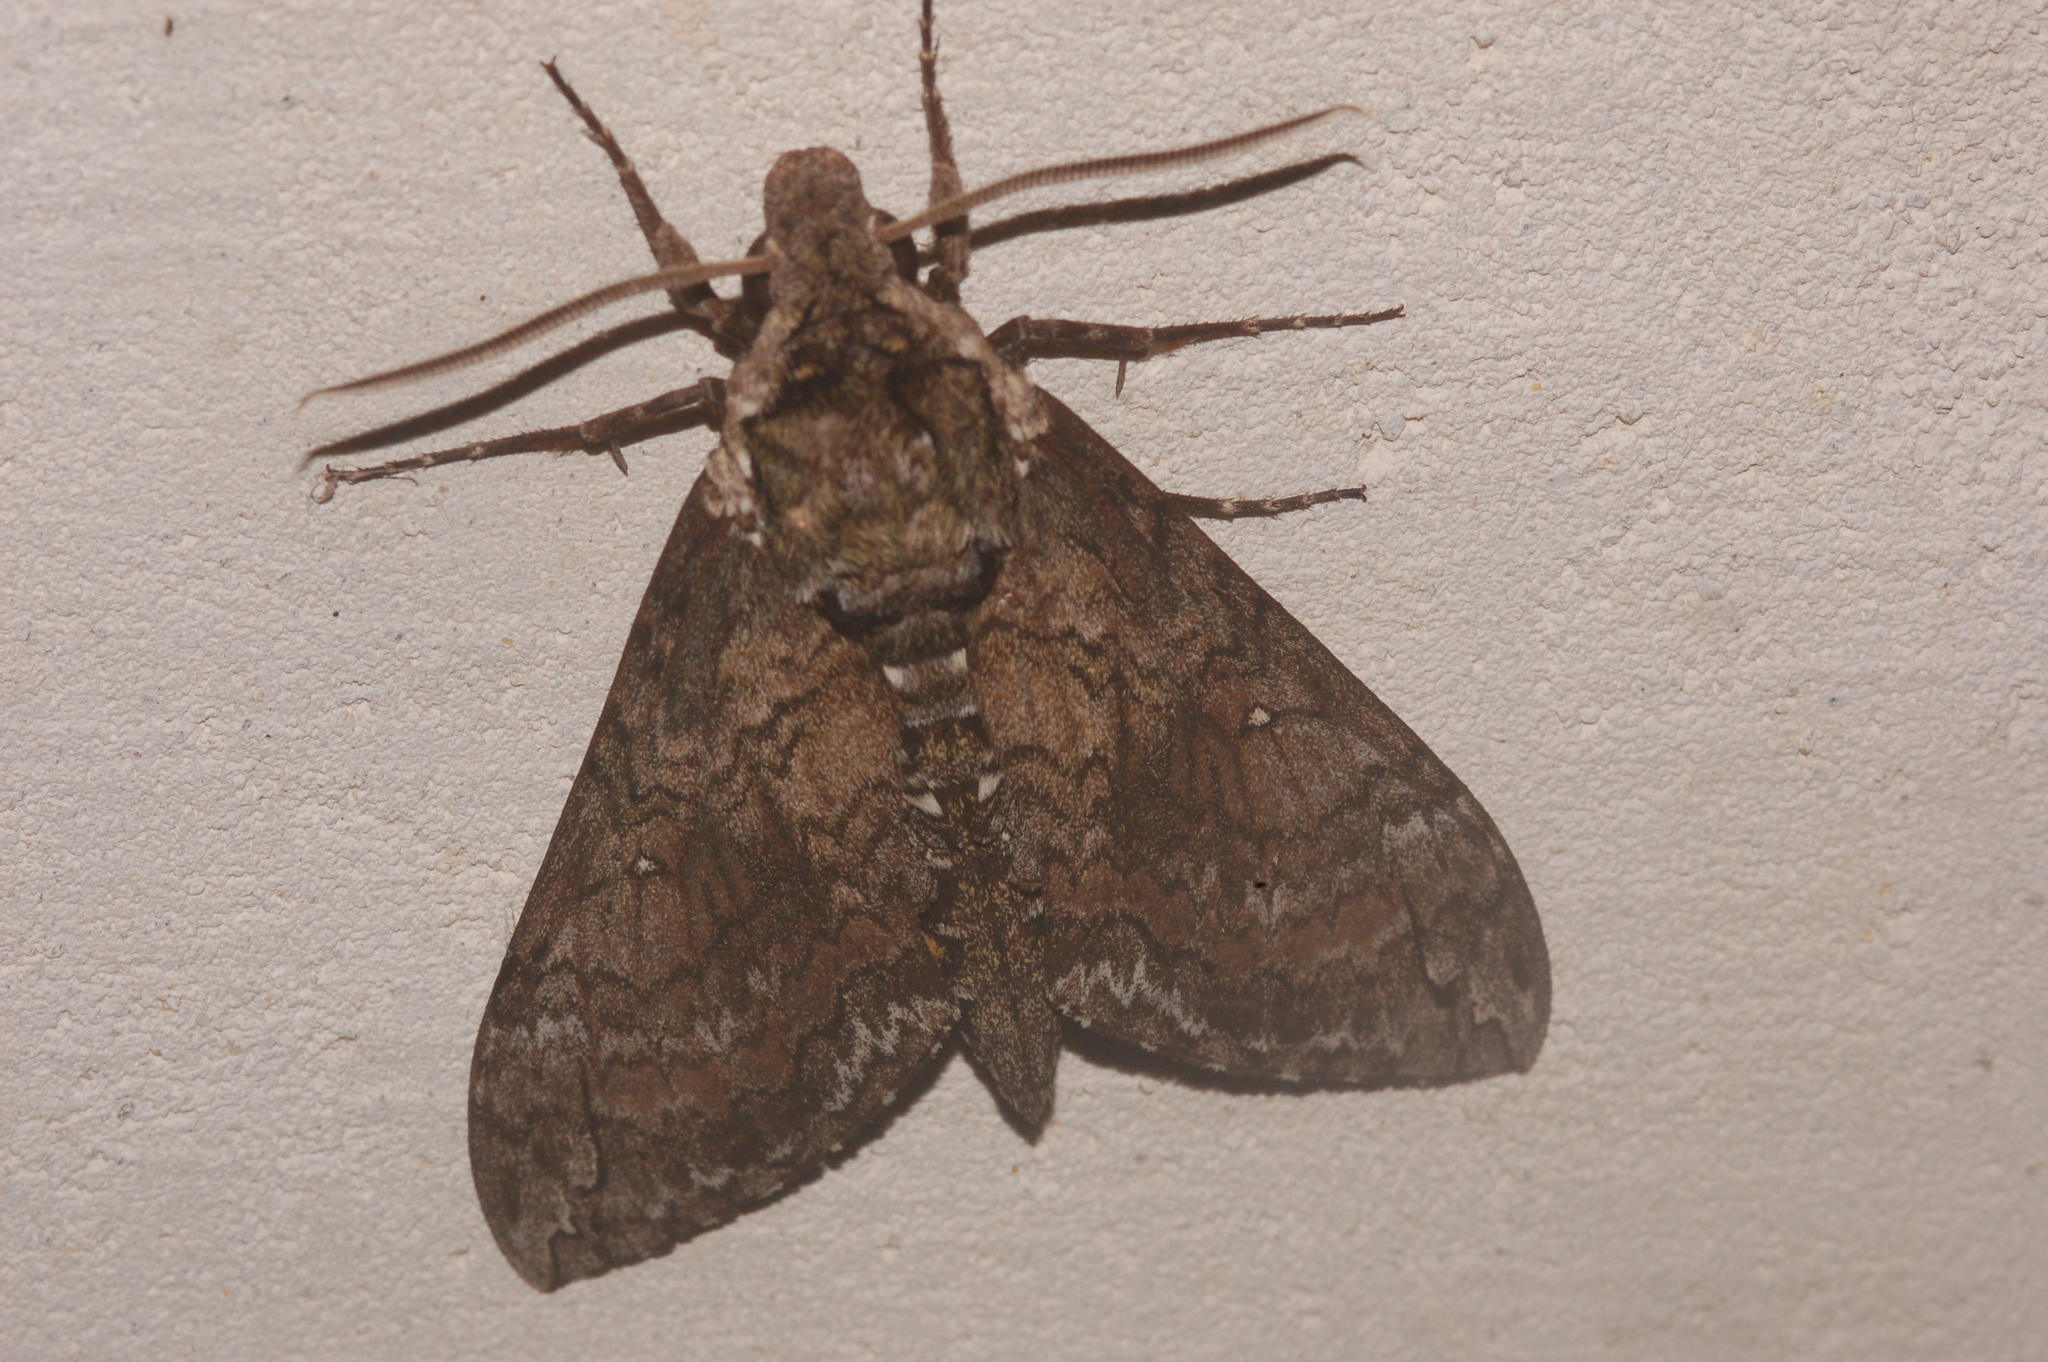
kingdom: Animalia
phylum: Arthropoda
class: Insecta
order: Lepidoptera
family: Sphingidae
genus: Manduca
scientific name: Manduca sexta
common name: Carolina sphinx
